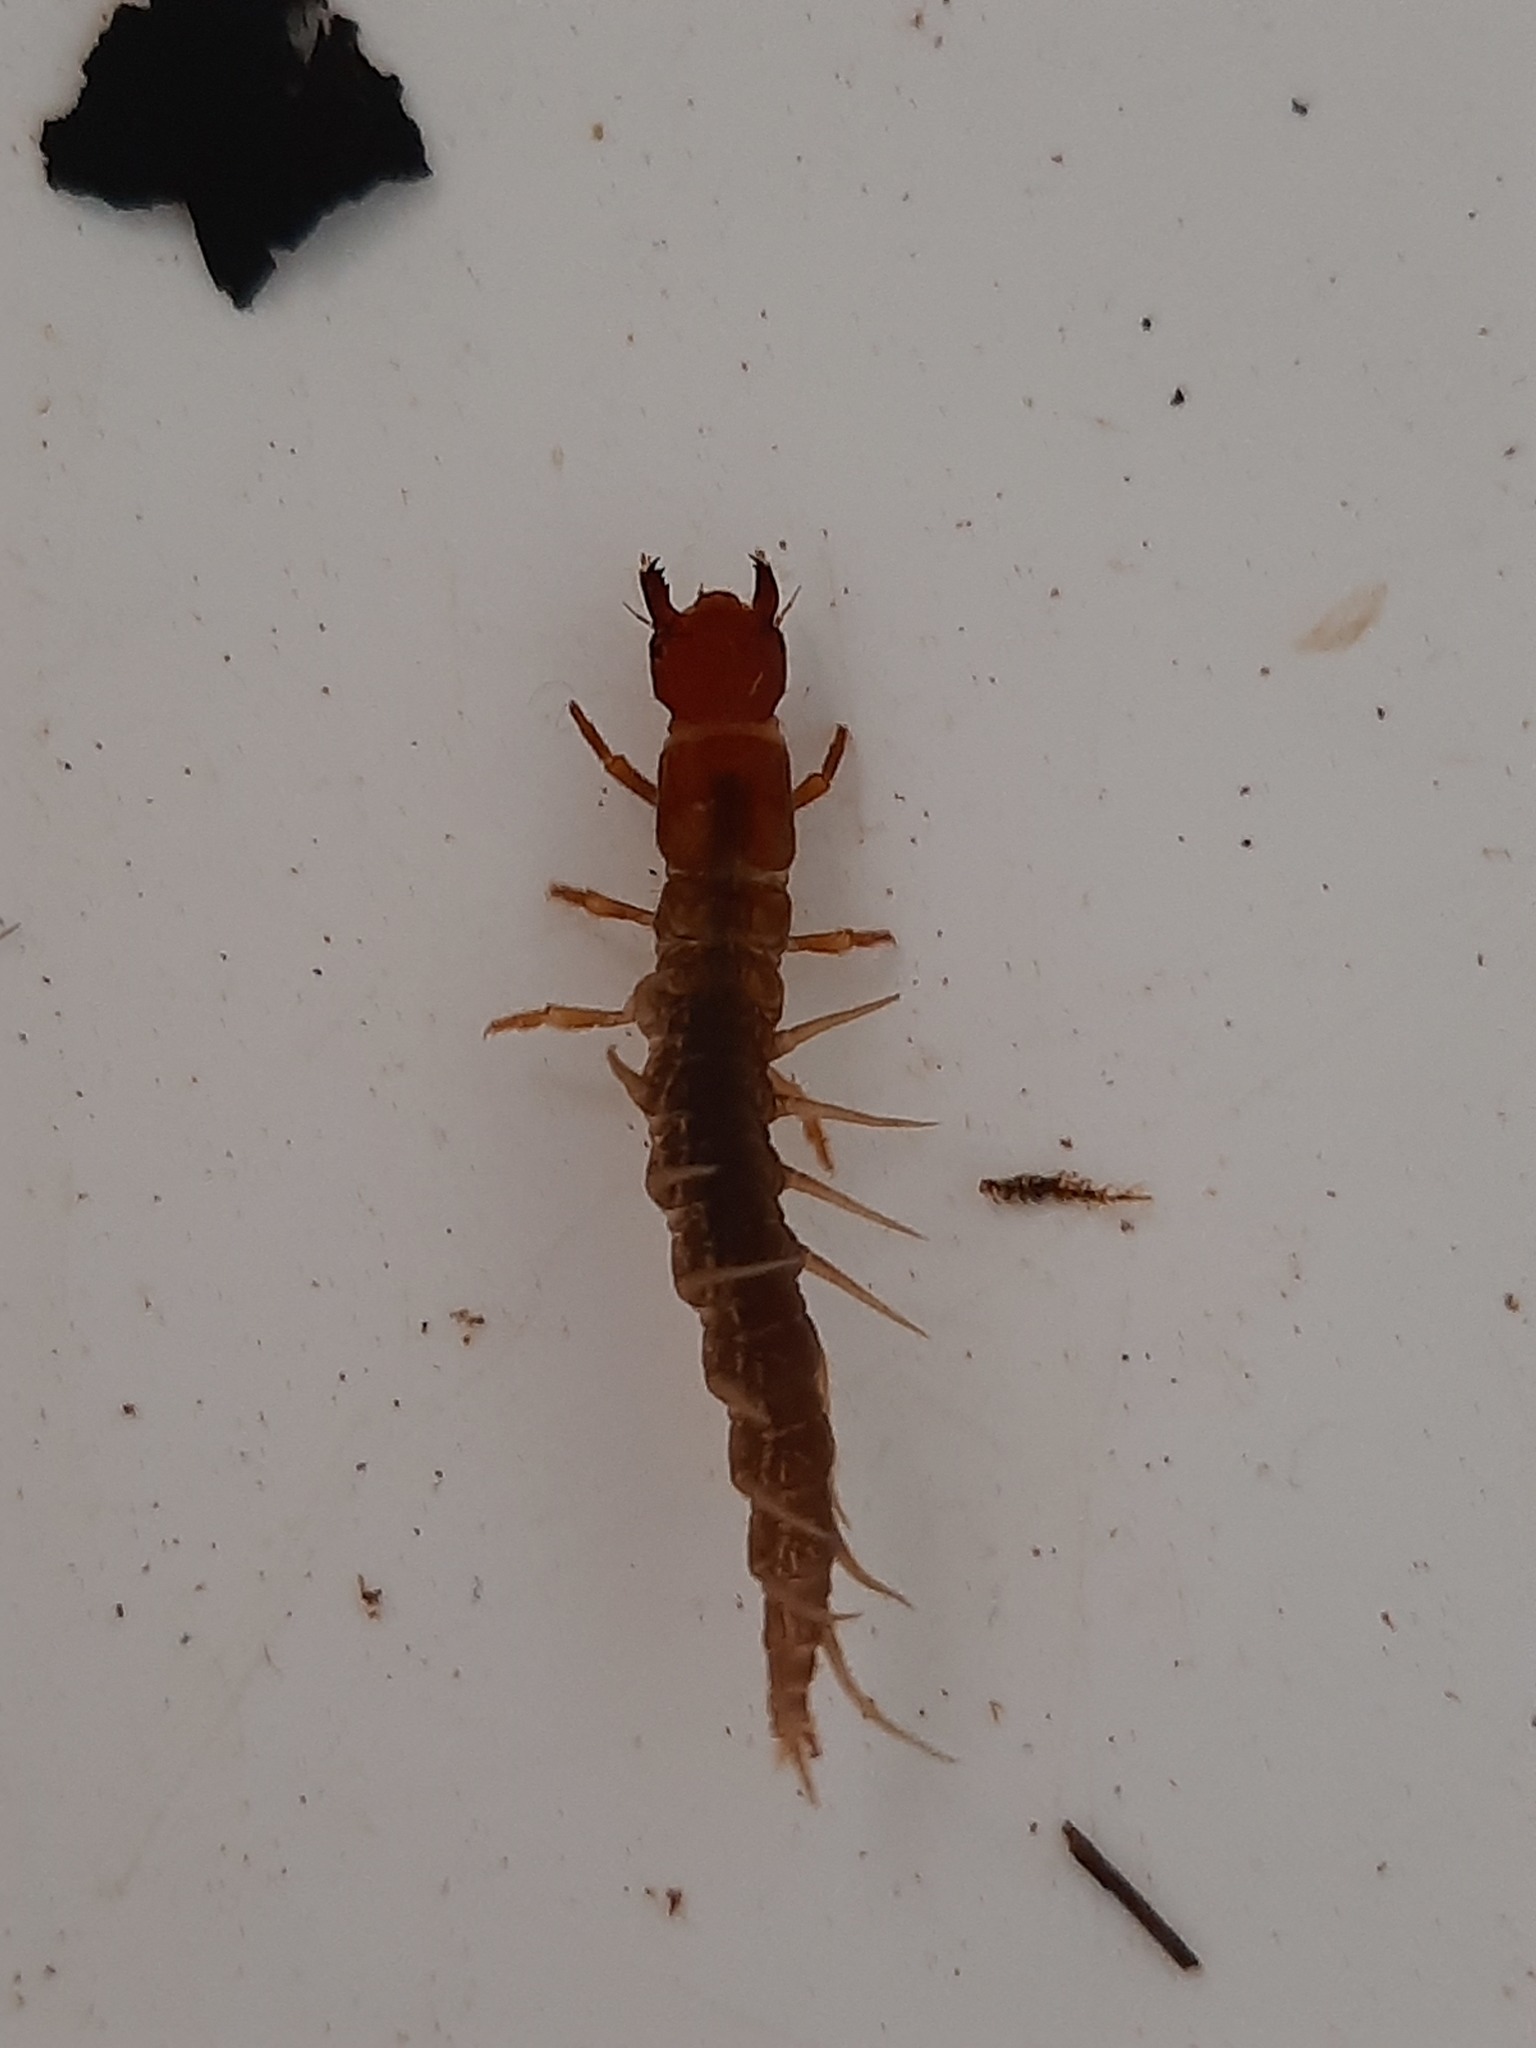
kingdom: Animalia
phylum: Arthropoda
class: Insecta
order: Megaloptera
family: Corydalidae
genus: Archichauliodes
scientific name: Archichauliodes diversus
